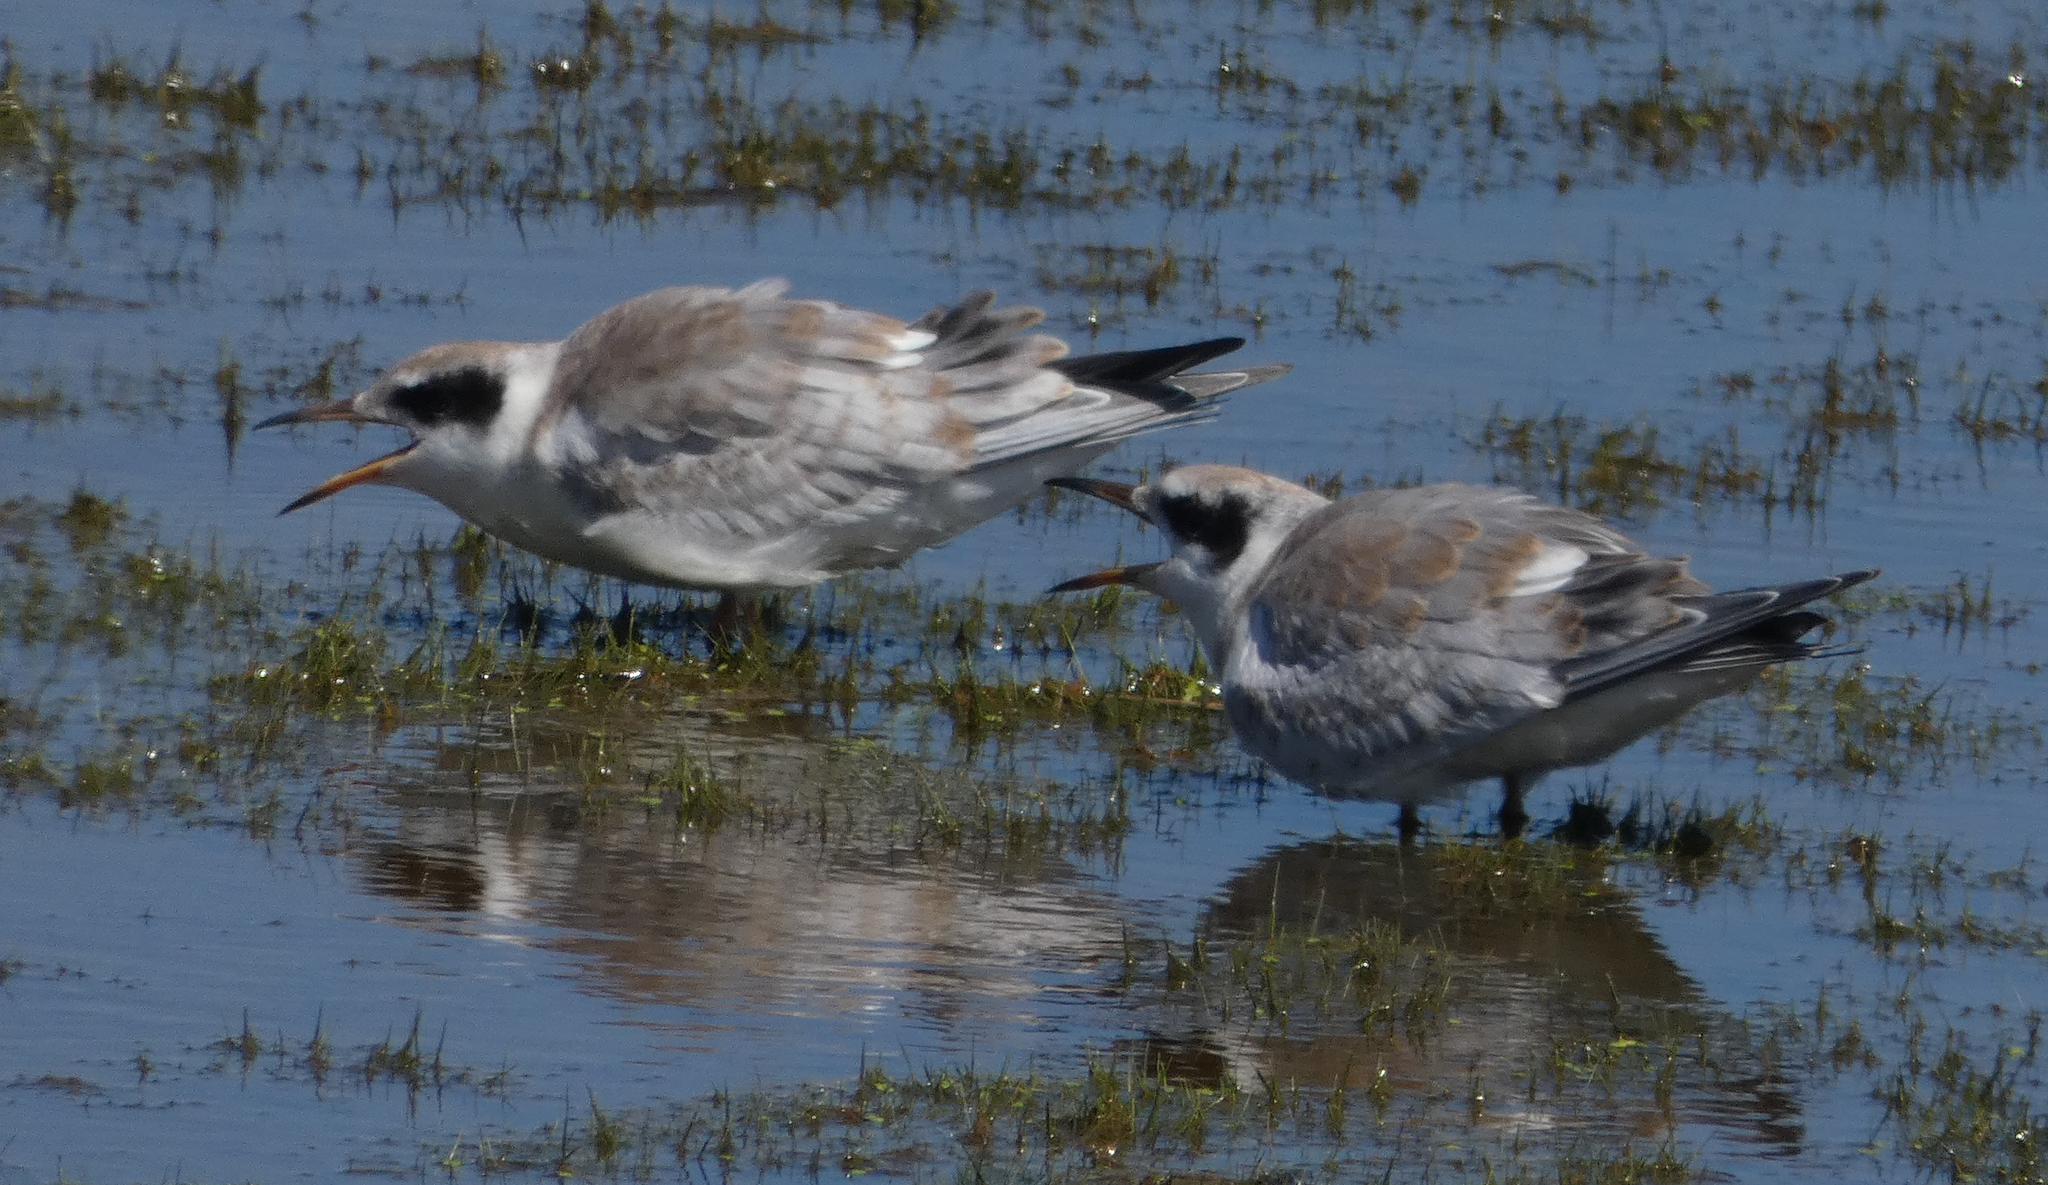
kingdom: Animalia
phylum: Chordata
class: Aves
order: Charadriiformes
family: Laridae
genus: Sterna
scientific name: Sterna forsteri
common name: Forster's tern
